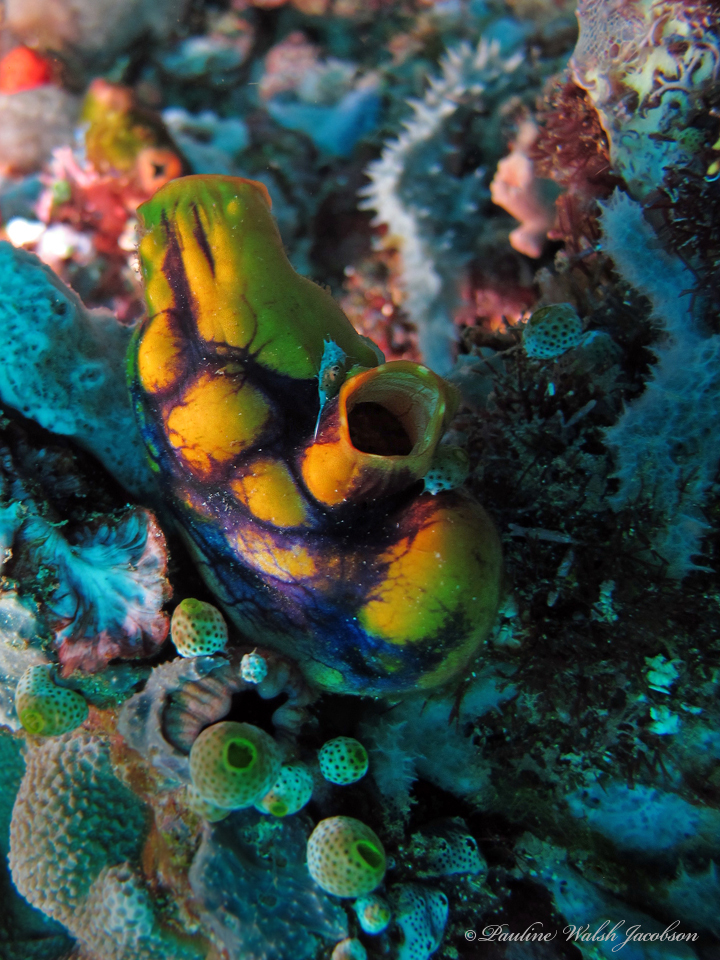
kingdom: Animalia
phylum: Chordata
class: Ascidiacea
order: Stolidobranchia
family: Styelidae
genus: Polycarpa
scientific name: Polycarpa aurata
